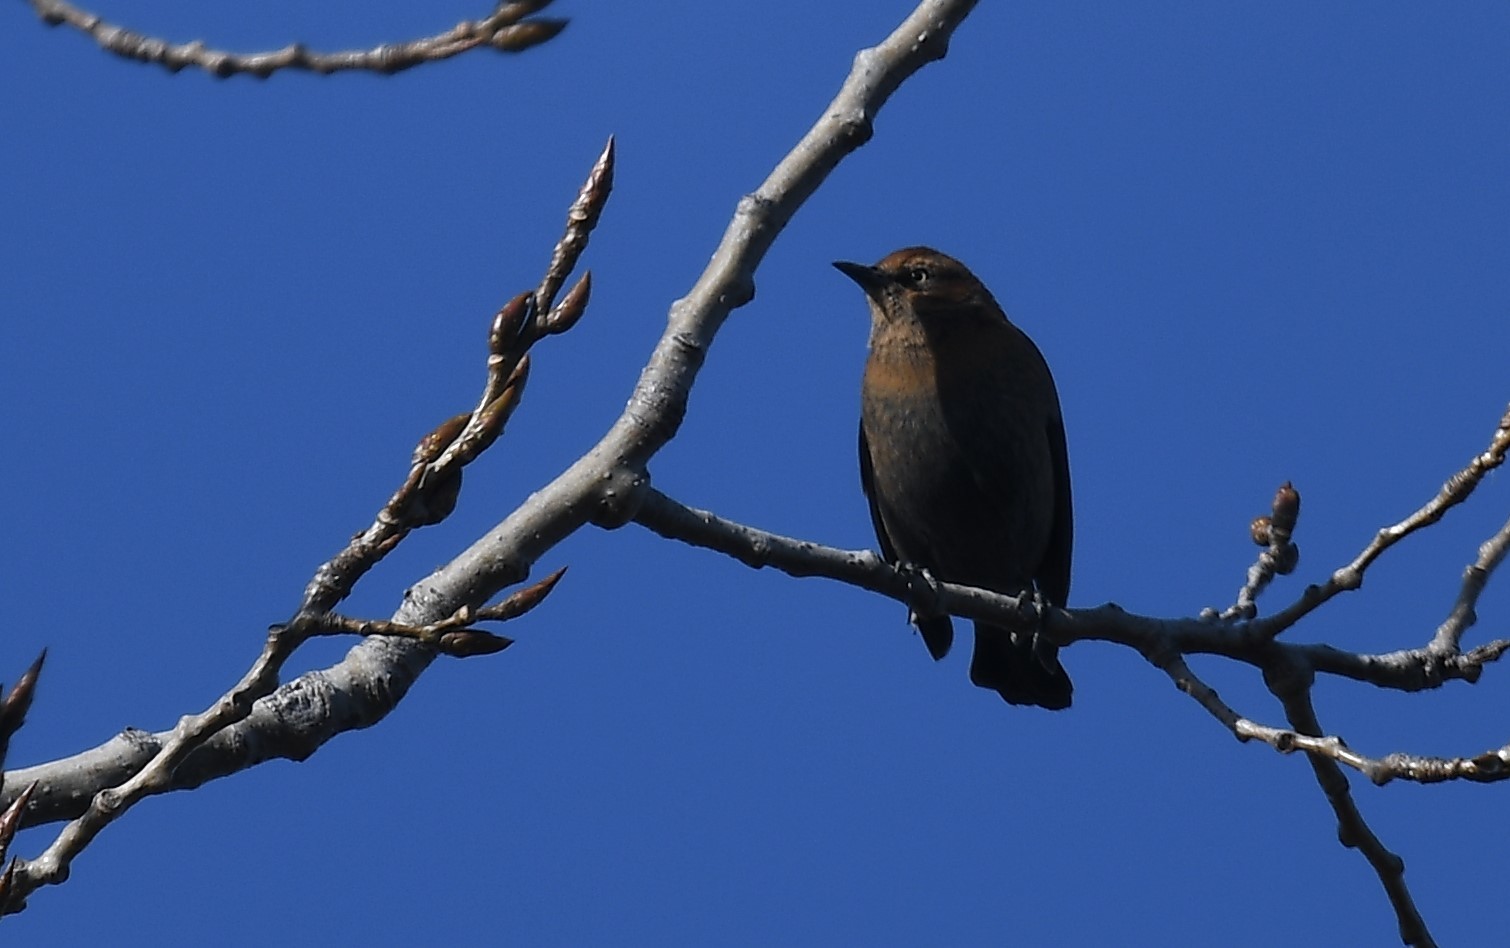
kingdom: Animalia
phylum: Chordata
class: Aves
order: Passeriformes
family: Icteridae
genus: Euphagus
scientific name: Euphagus carolinus
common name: Rusty blackbird
